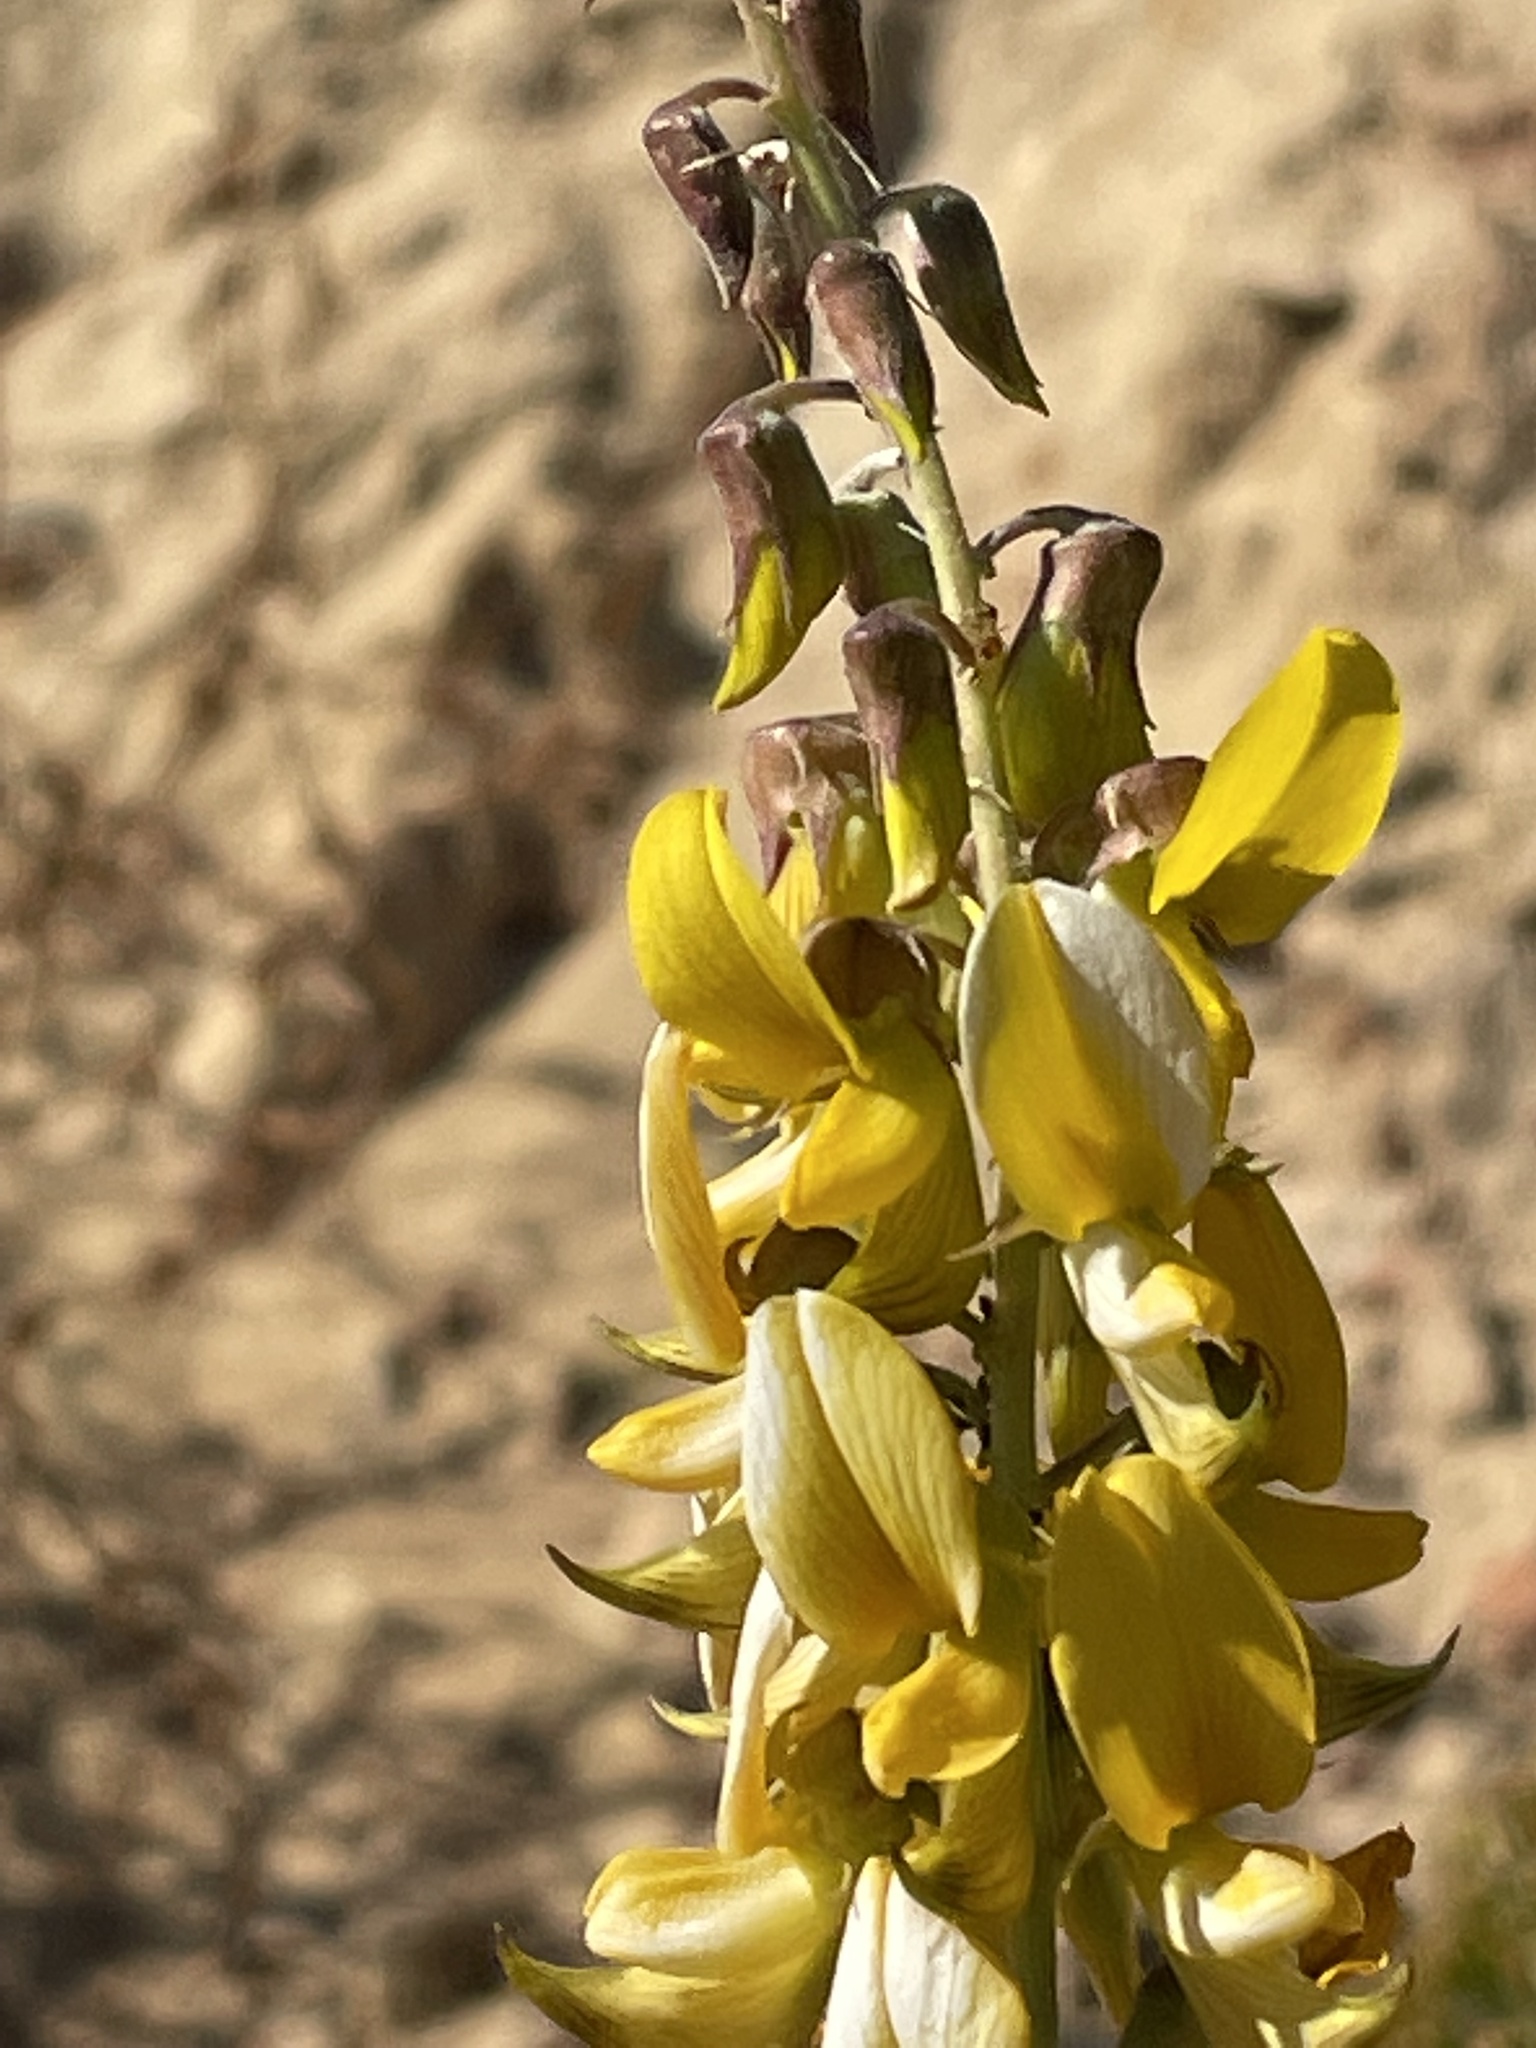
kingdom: Plantae
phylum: Tracheophyta
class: Magnoliopsida
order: Fabales
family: Fabaceae
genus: Crotalaria
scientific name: Crotalaria pallida
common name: Smooth rattlebox
